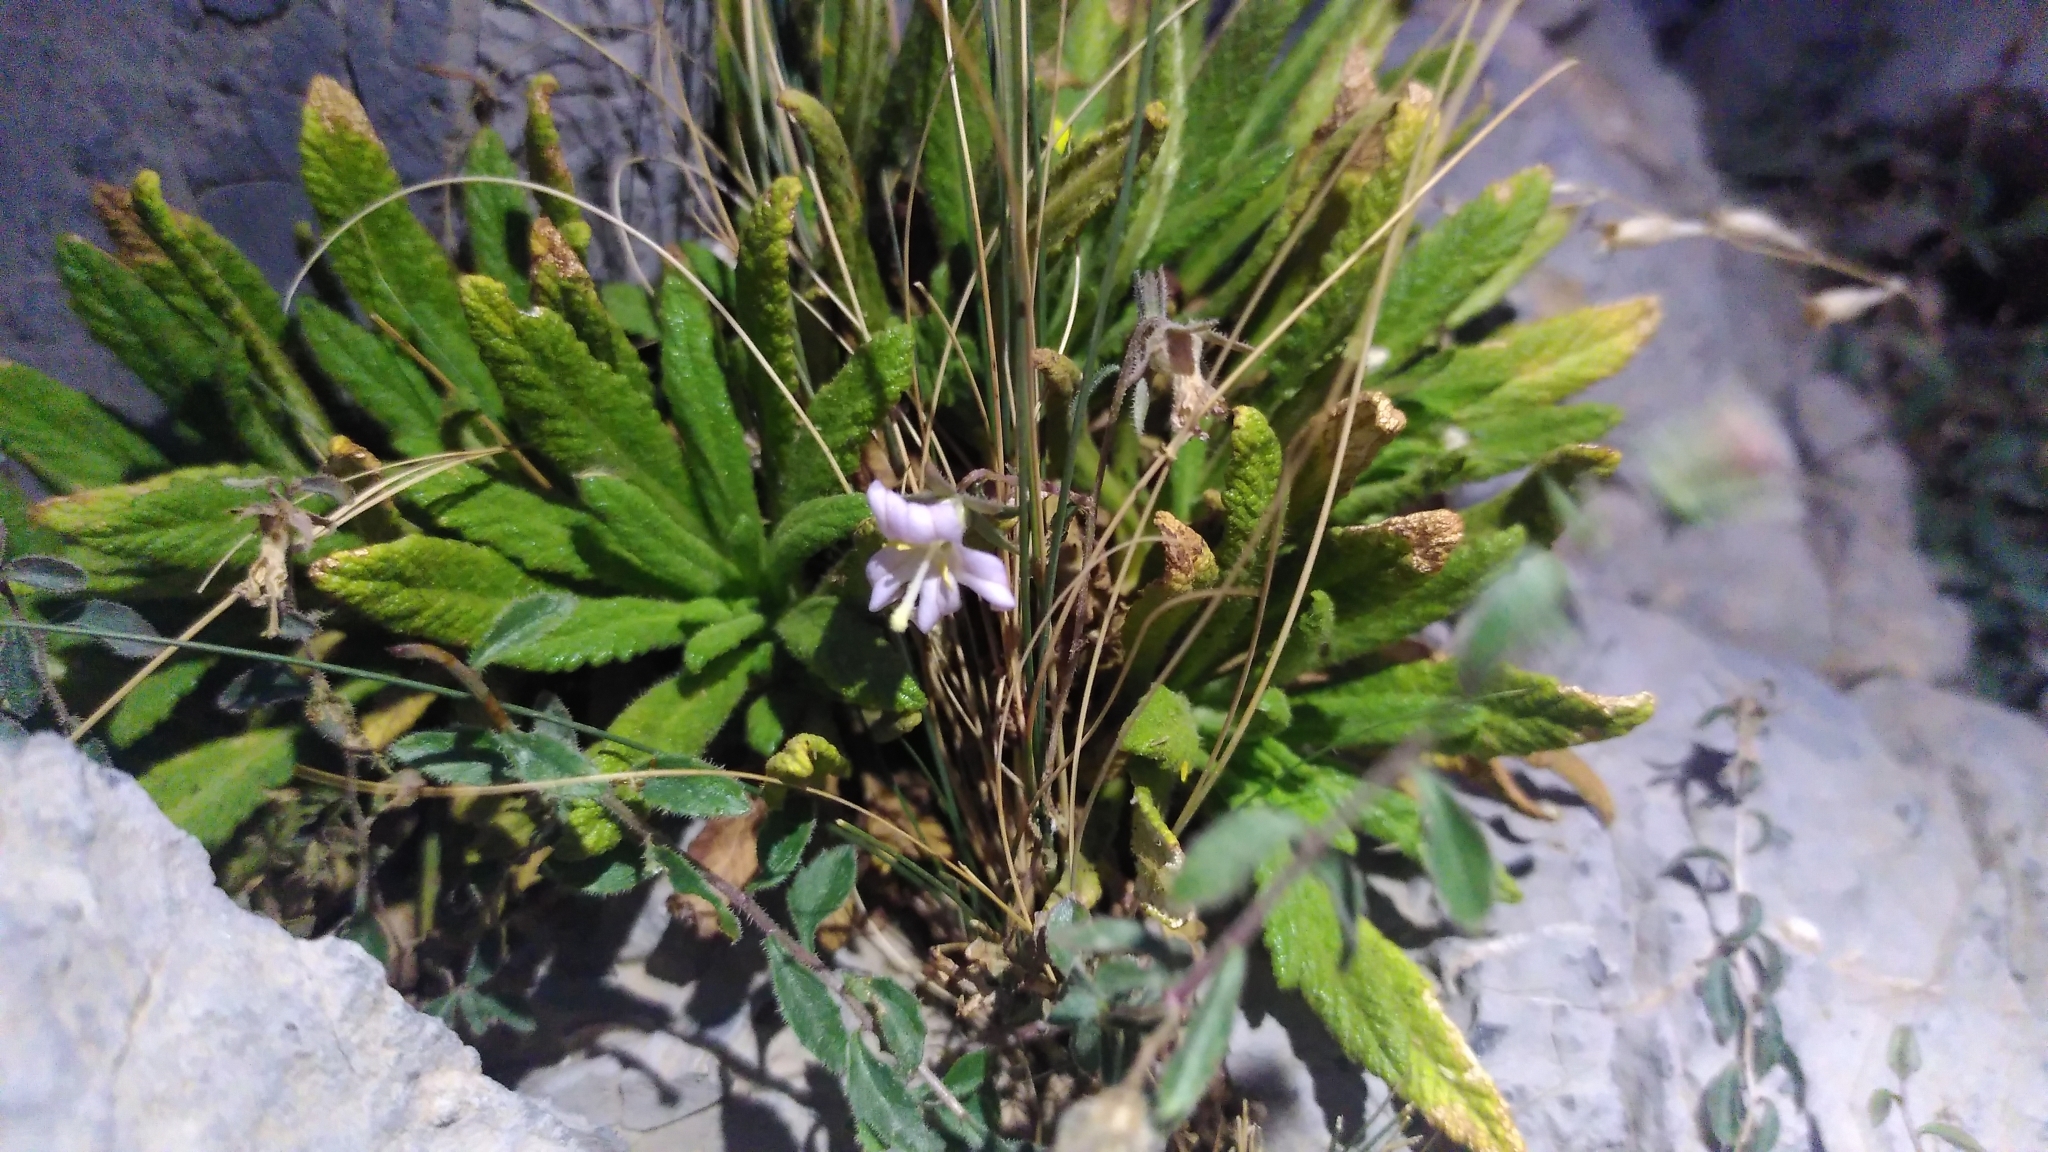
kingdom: Plantae
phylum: Tracheophyta
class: Magnoliopsida
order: Asterales
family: Campanulaceae
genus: Campanula
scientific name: Campanula akhdarensis
